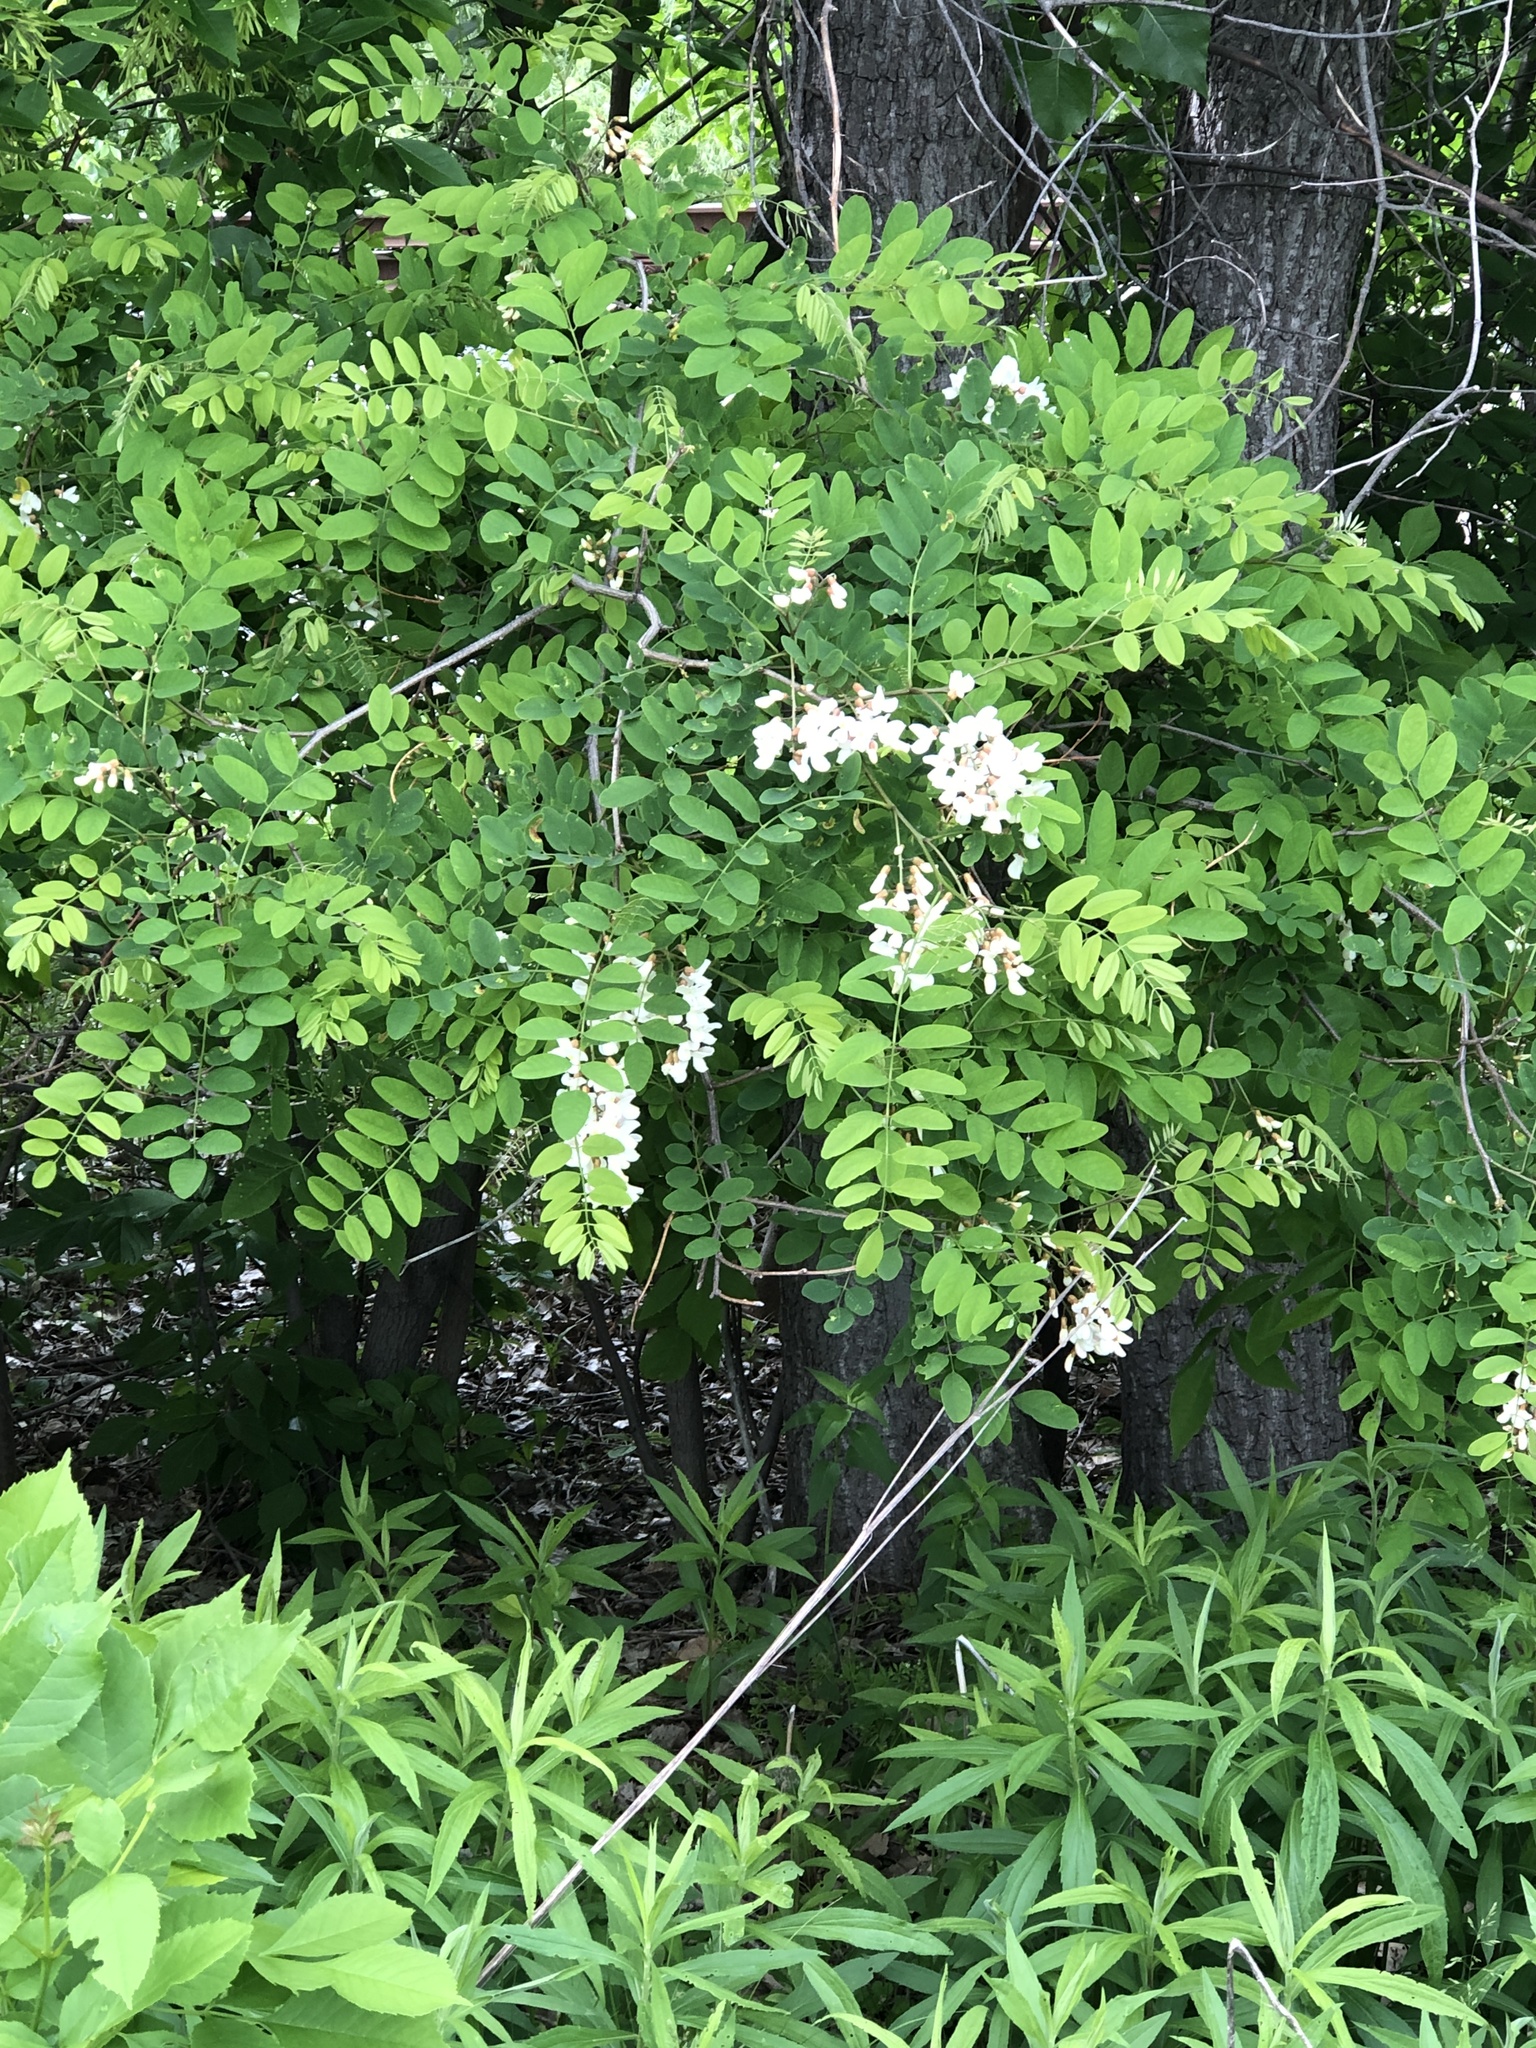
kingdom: Plantae
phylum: Tracheophyta
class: Magnoliopsida
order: Fabales
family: Fabaceae
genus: Robinia
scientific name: Robinia pseudoacacia
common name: Black locust
